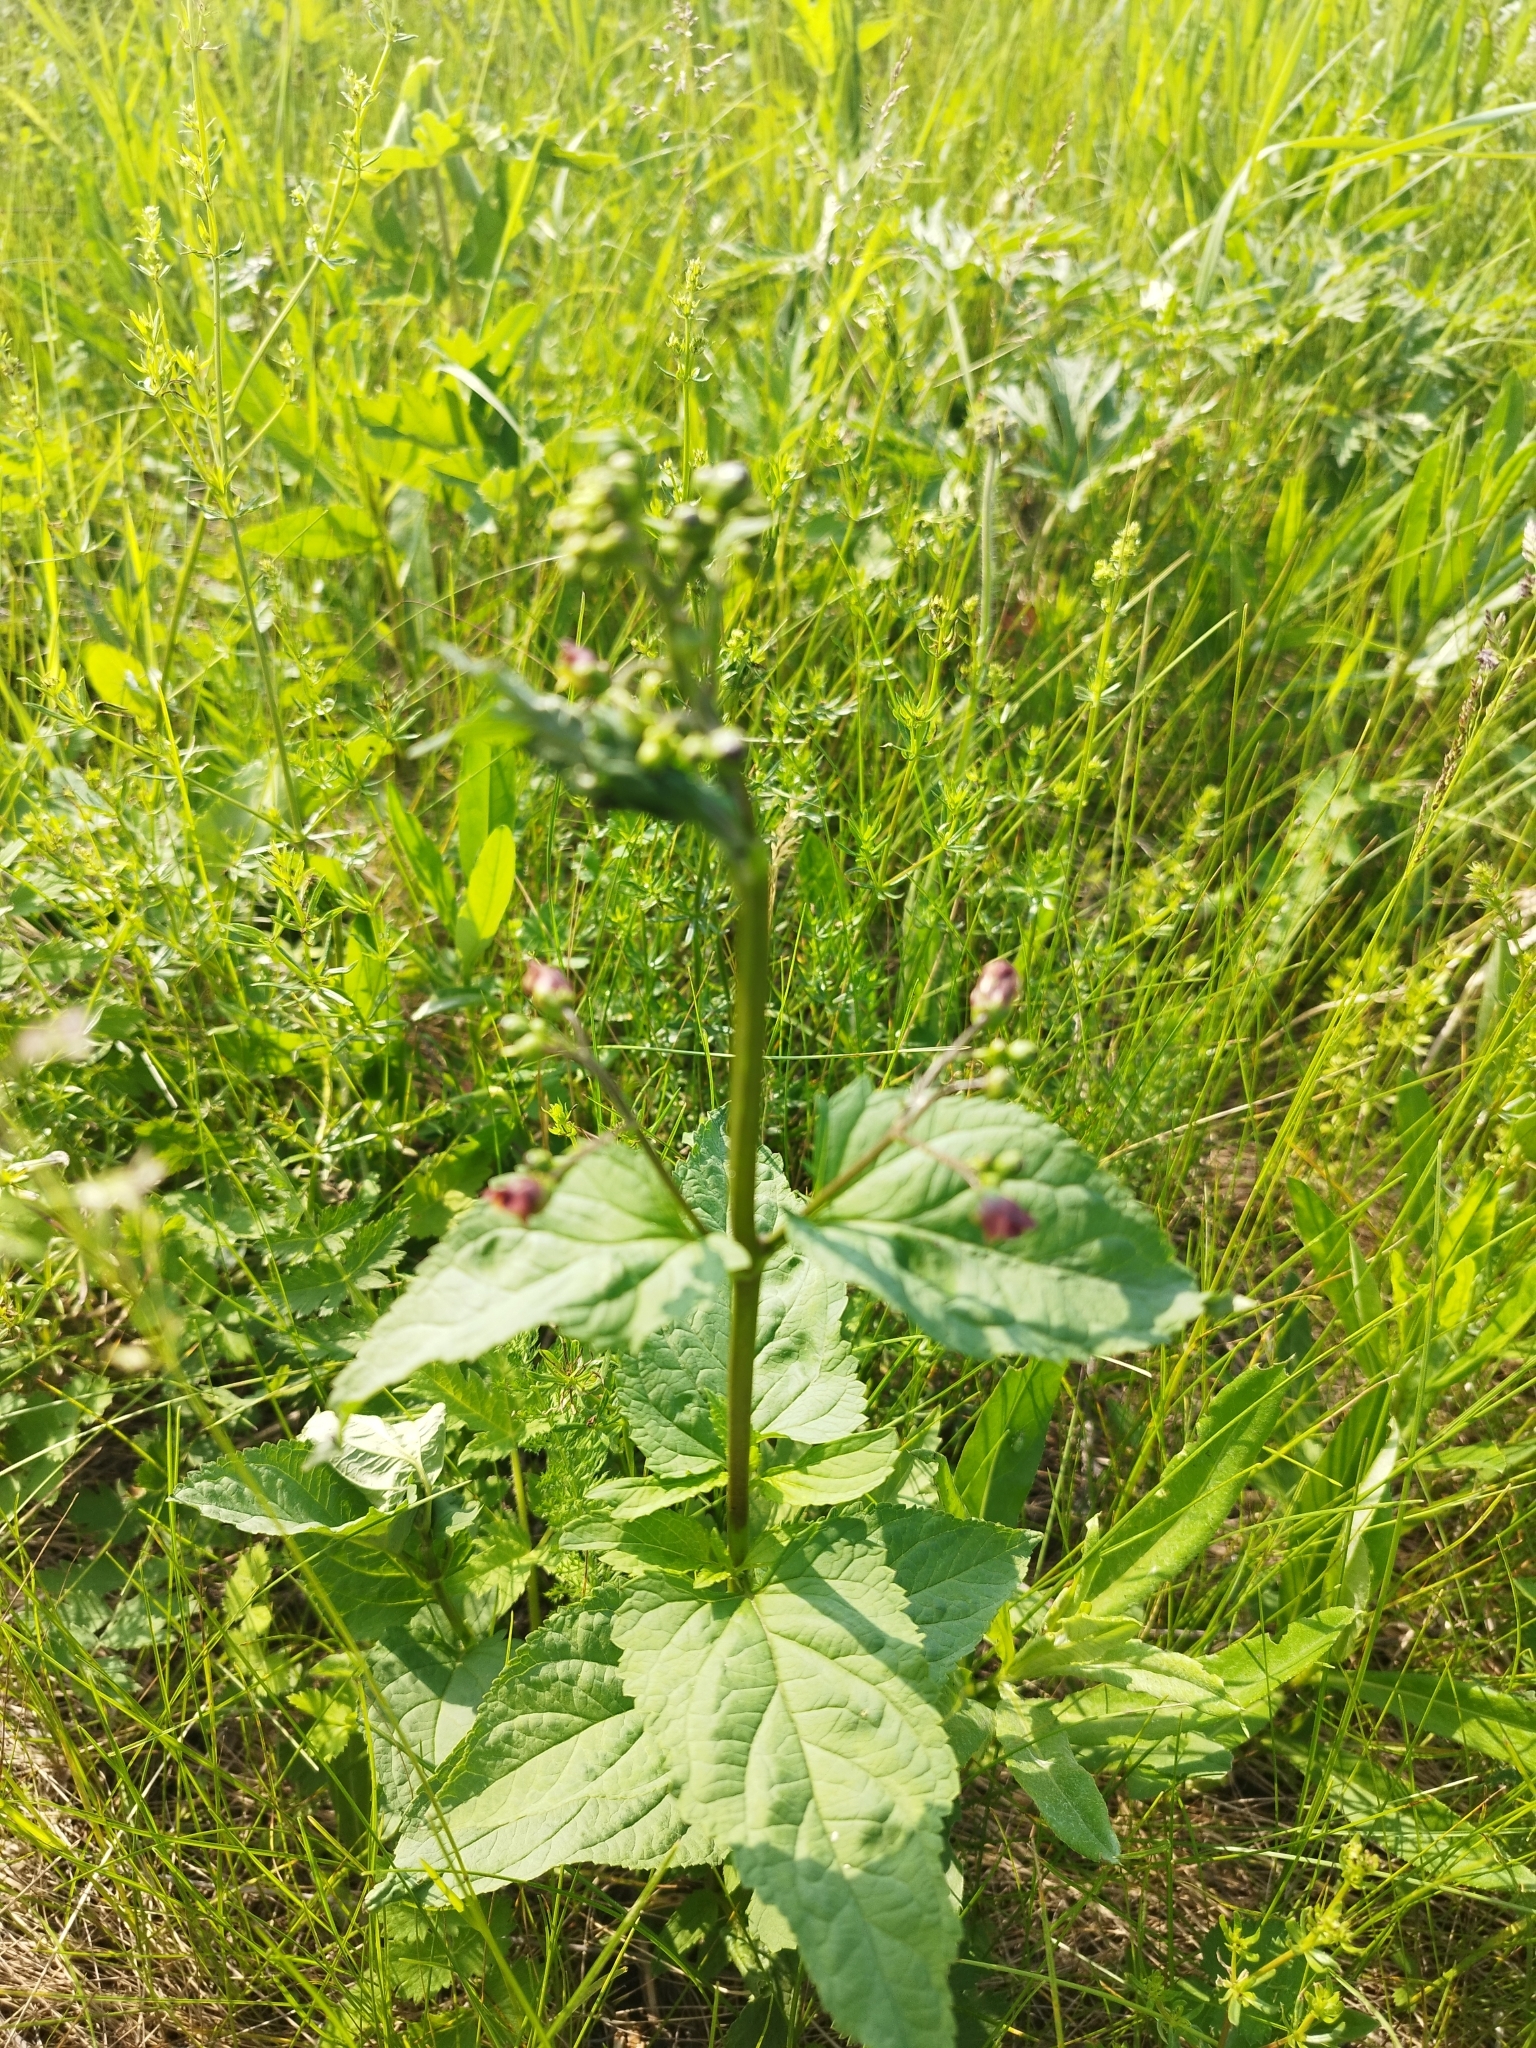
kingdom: Plantae
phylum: Tracheophyta
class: Magnoliopsida
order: Lamiales
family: Scrophulariaceae
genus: Scrophularia
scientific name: Scrophularia nodosa
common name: Common figwort
